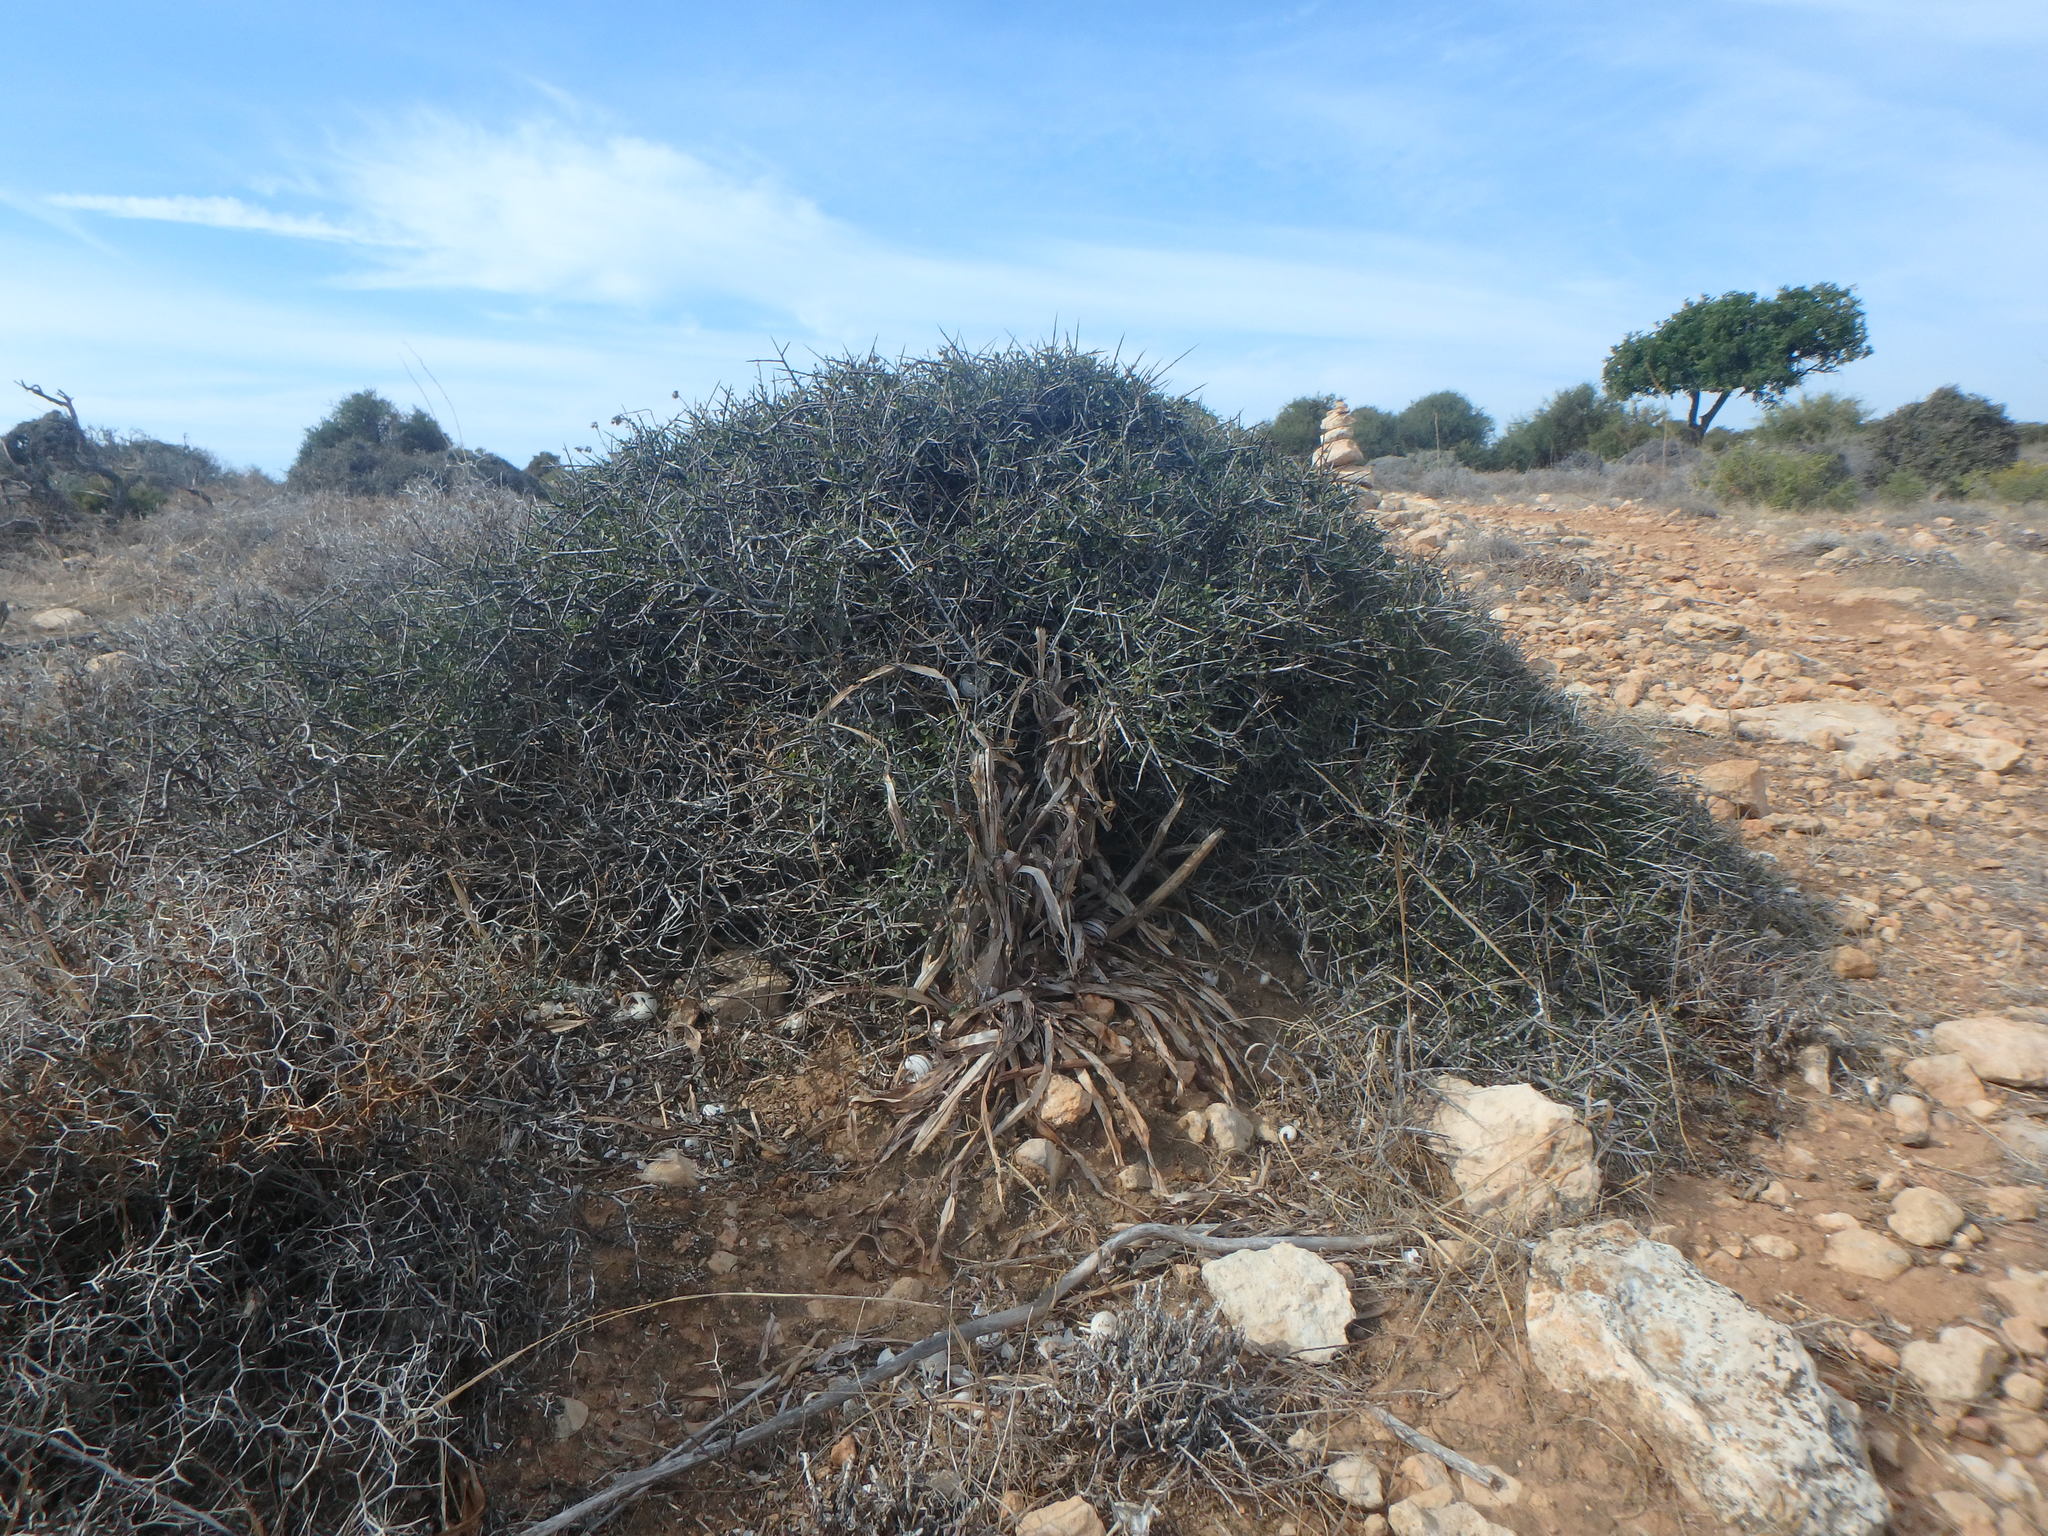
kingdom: Plantae
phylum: Tracheophyta
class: Magnoliopsida
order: Rosales
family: Rhamnaceae
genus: Rhamnus
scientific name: Rhamnus lycioides
